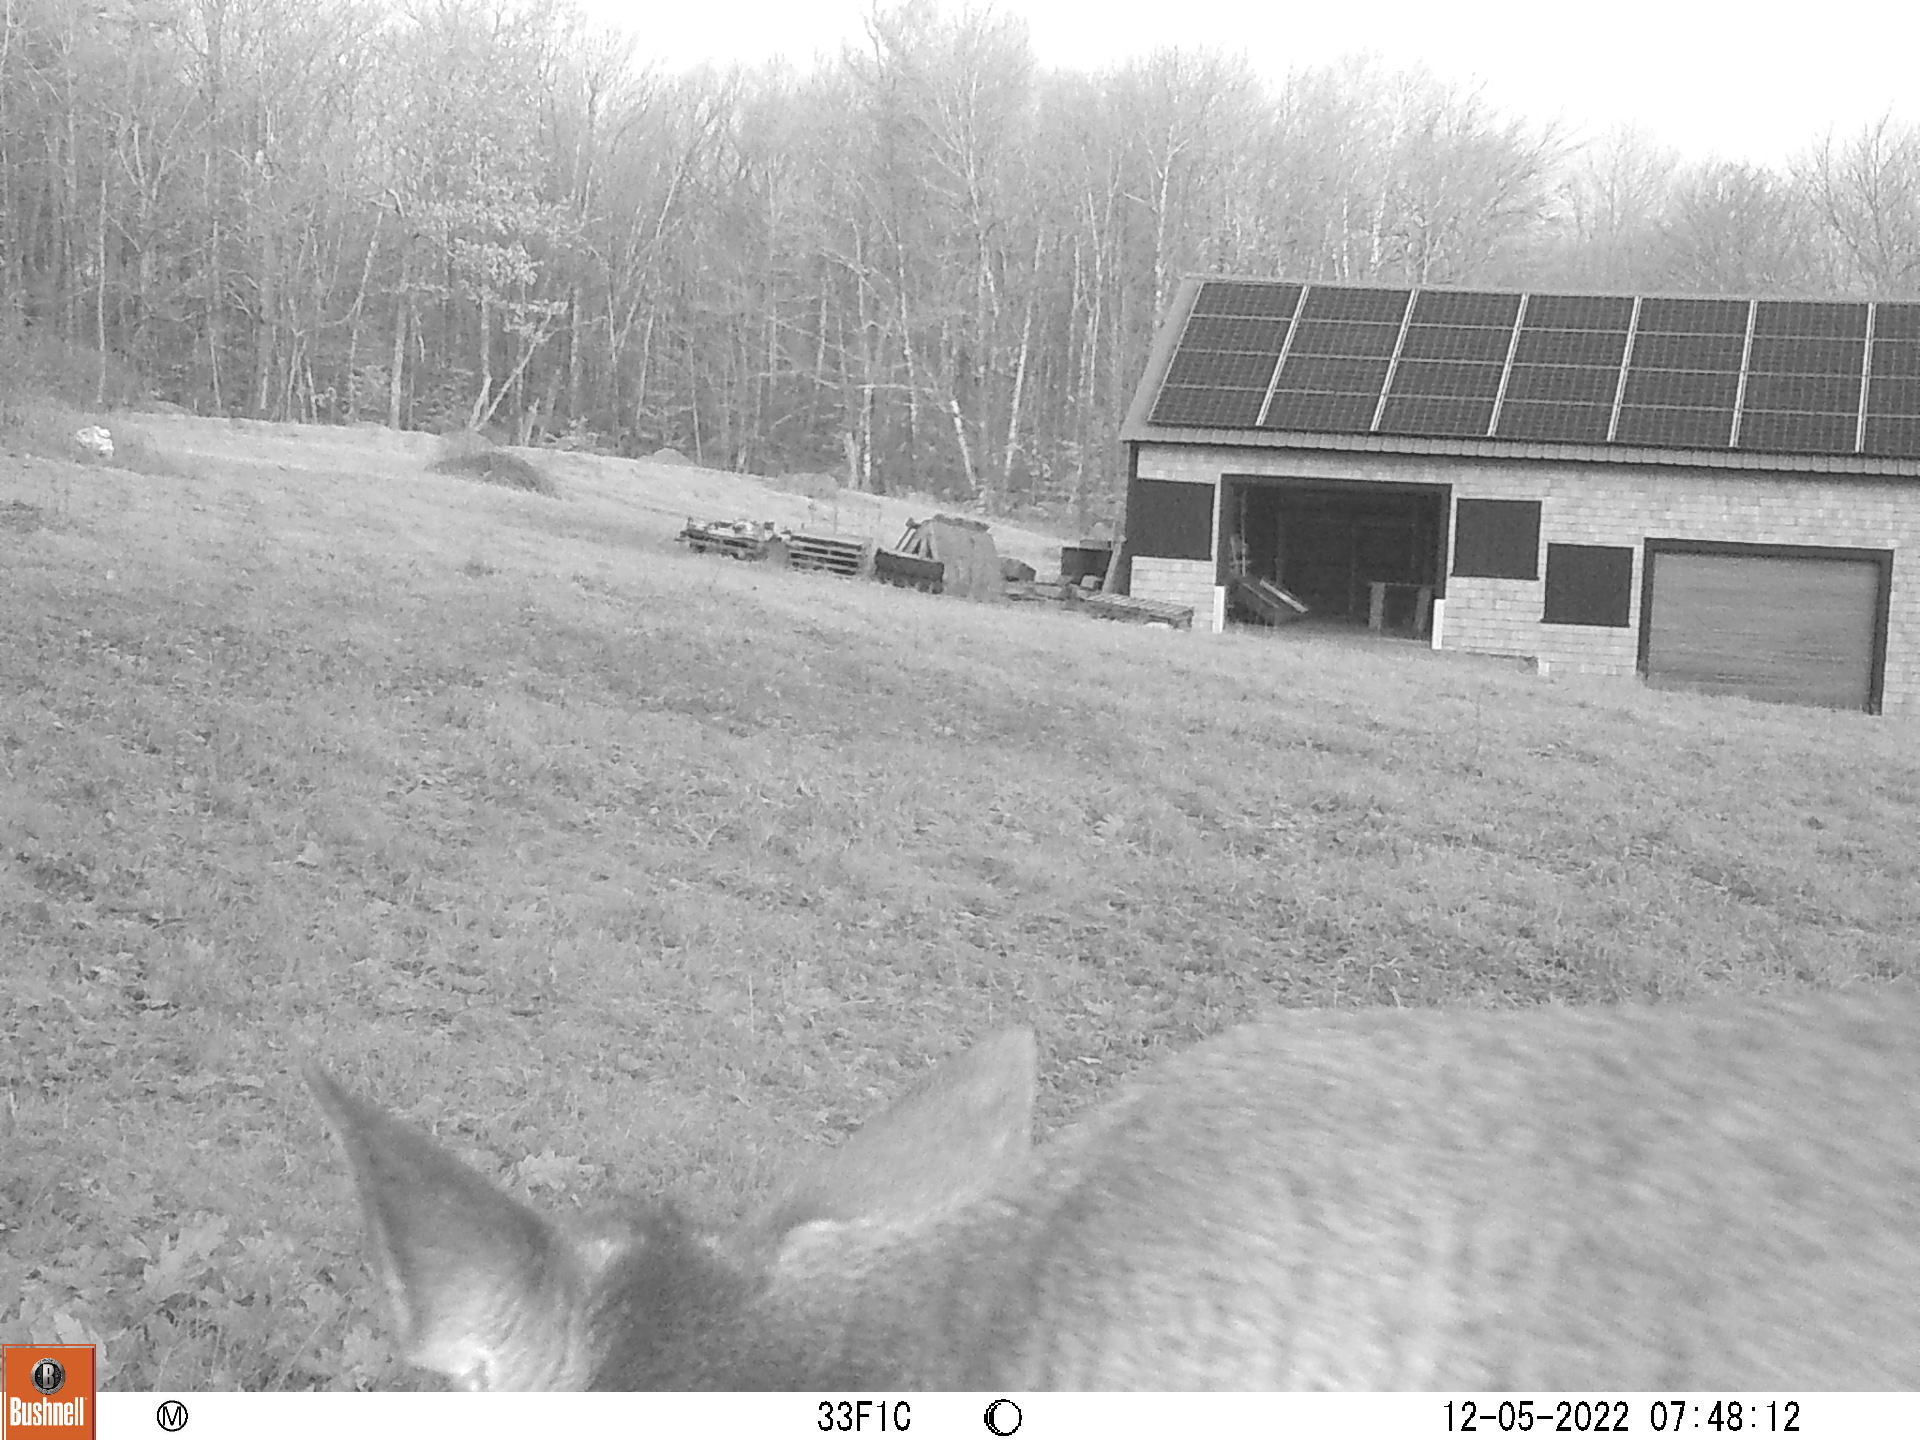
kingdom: Animalia
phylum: Chordata
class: Mammalia
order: Artiodactyla
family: Cervidae
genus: Odocoileus
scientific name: Odocoileus virginianus
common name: White-tailed deer
